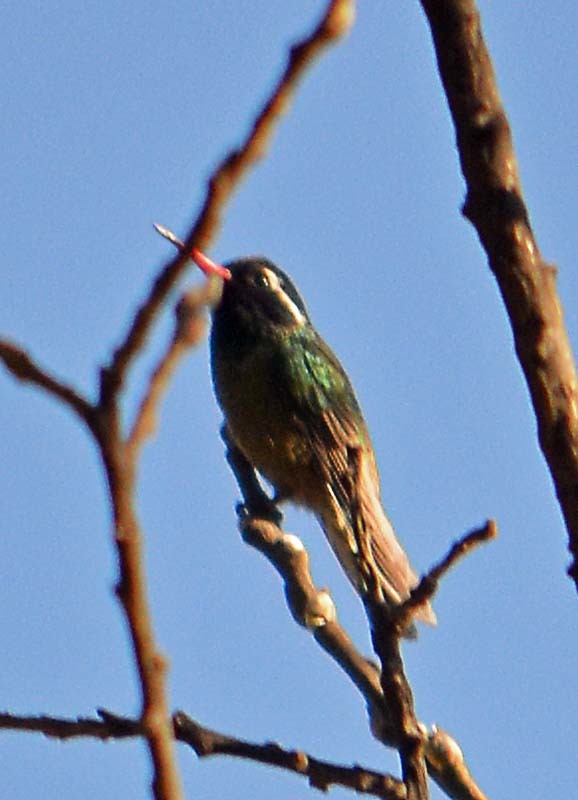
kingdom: Animalia
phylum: Chordata
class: Aves
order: Apodiformes
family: Trochilidae
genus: Basilinna
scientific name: Basilinna leucotis
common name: White-eared hummingbird
